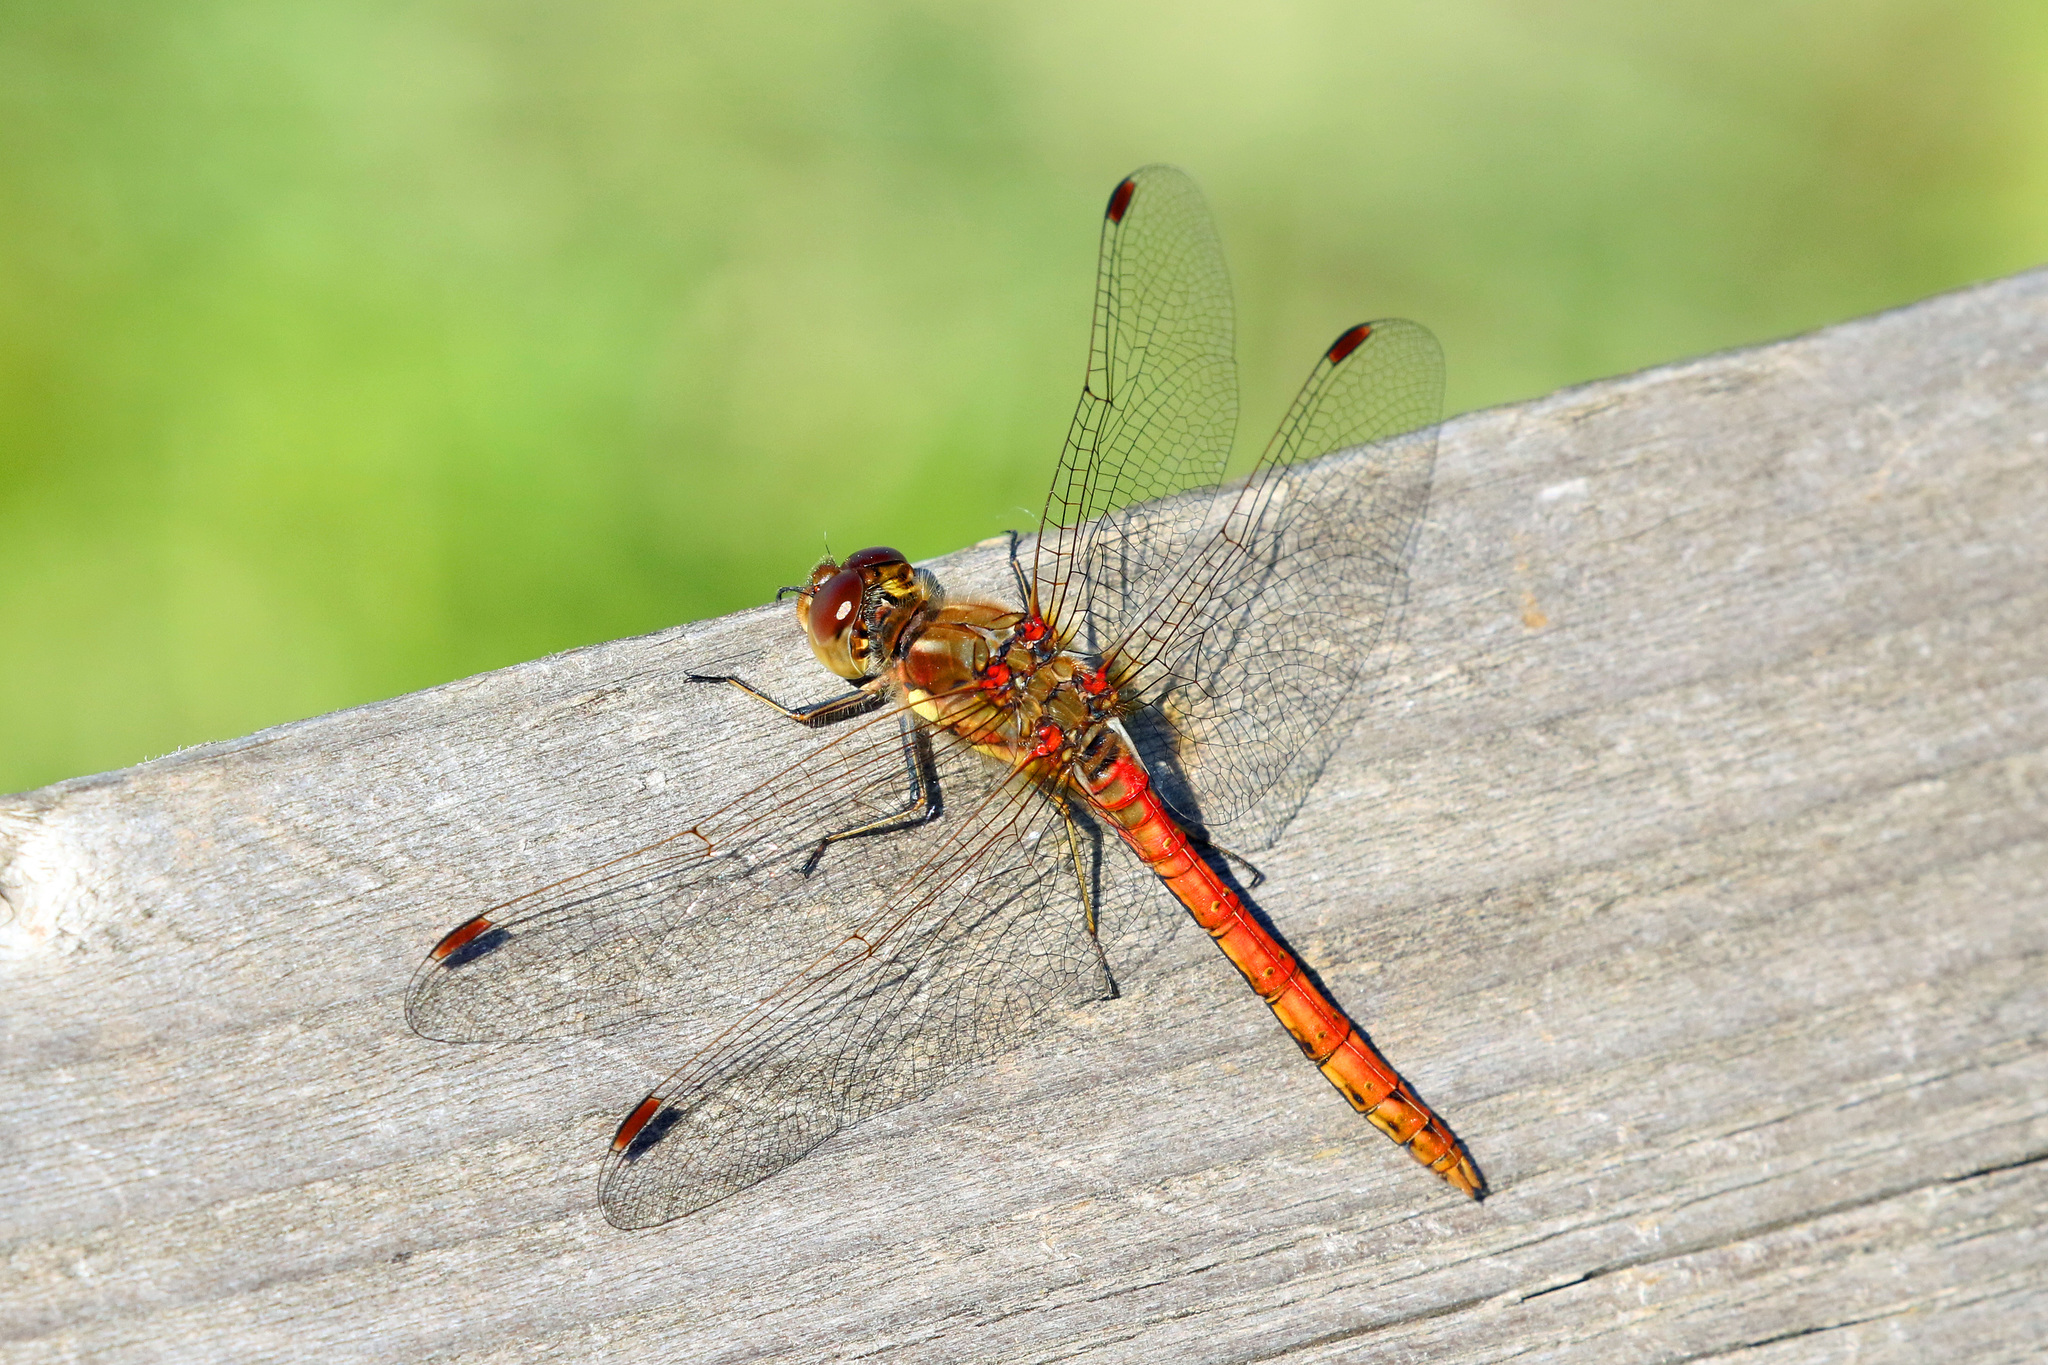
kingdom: Animalia
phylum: Arthropoda
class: Insecta
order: Odonata
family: Libellulidae
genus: Sympetrum
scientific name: Sympetrum striolatum
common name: Common darter
